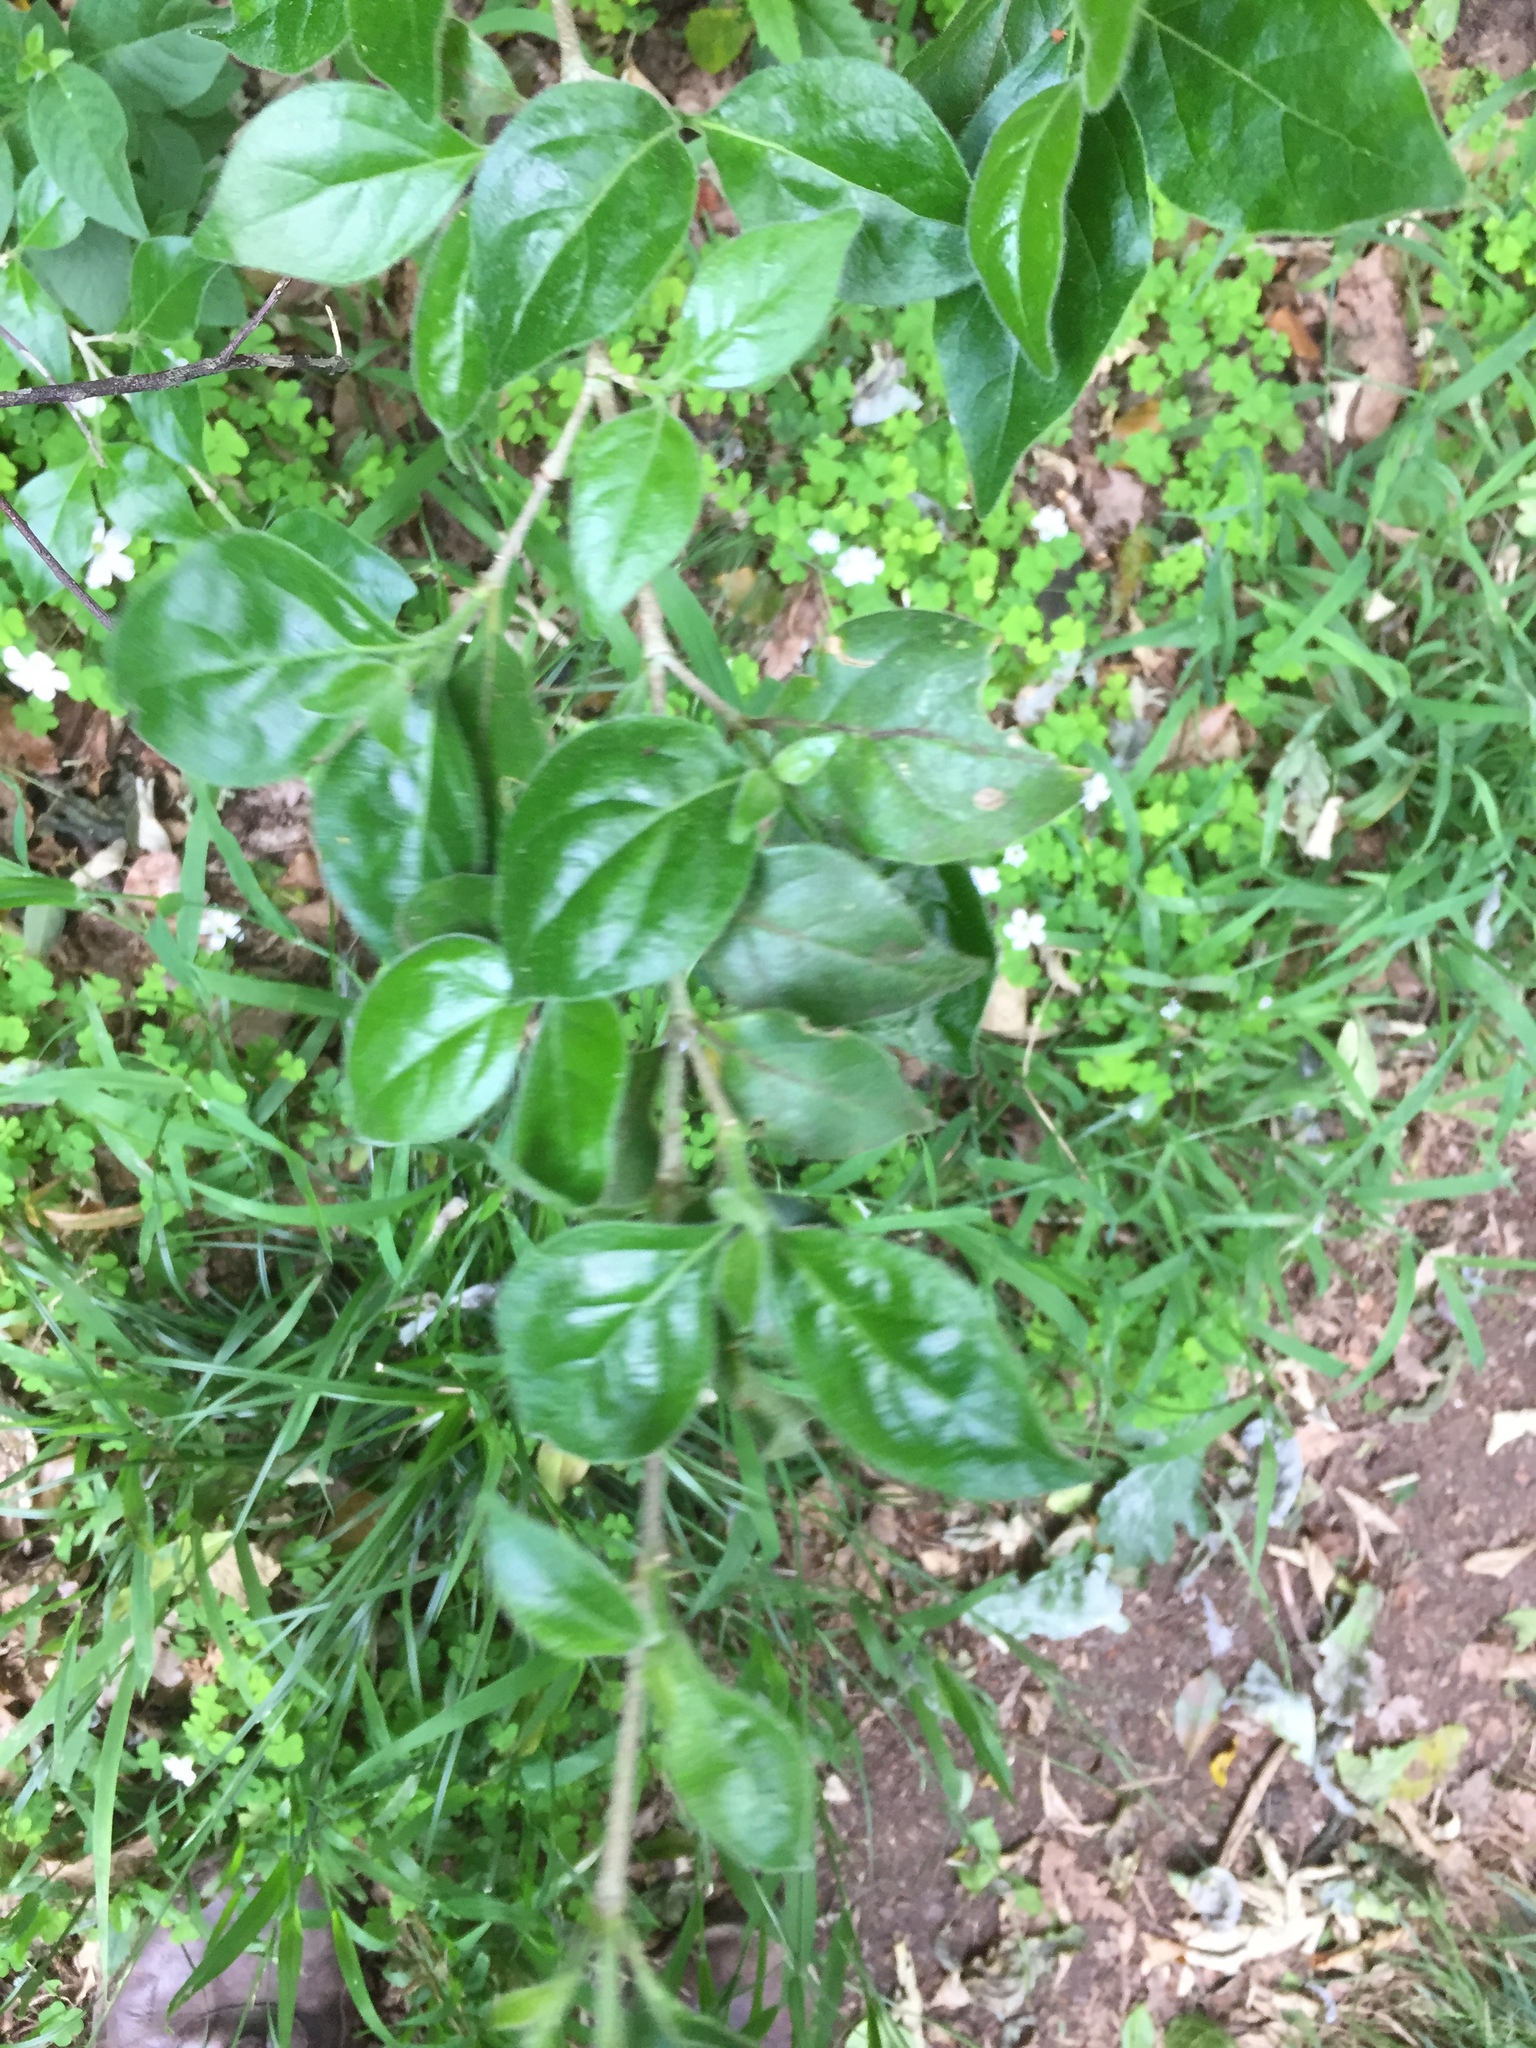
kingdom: Plantae
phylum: Tracheophyta
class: Magnoliopsida
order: Gentianales
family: Rubiaceae
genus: Afrocanthium
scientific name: Afrocanthium mundianum
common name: Rock-alder
